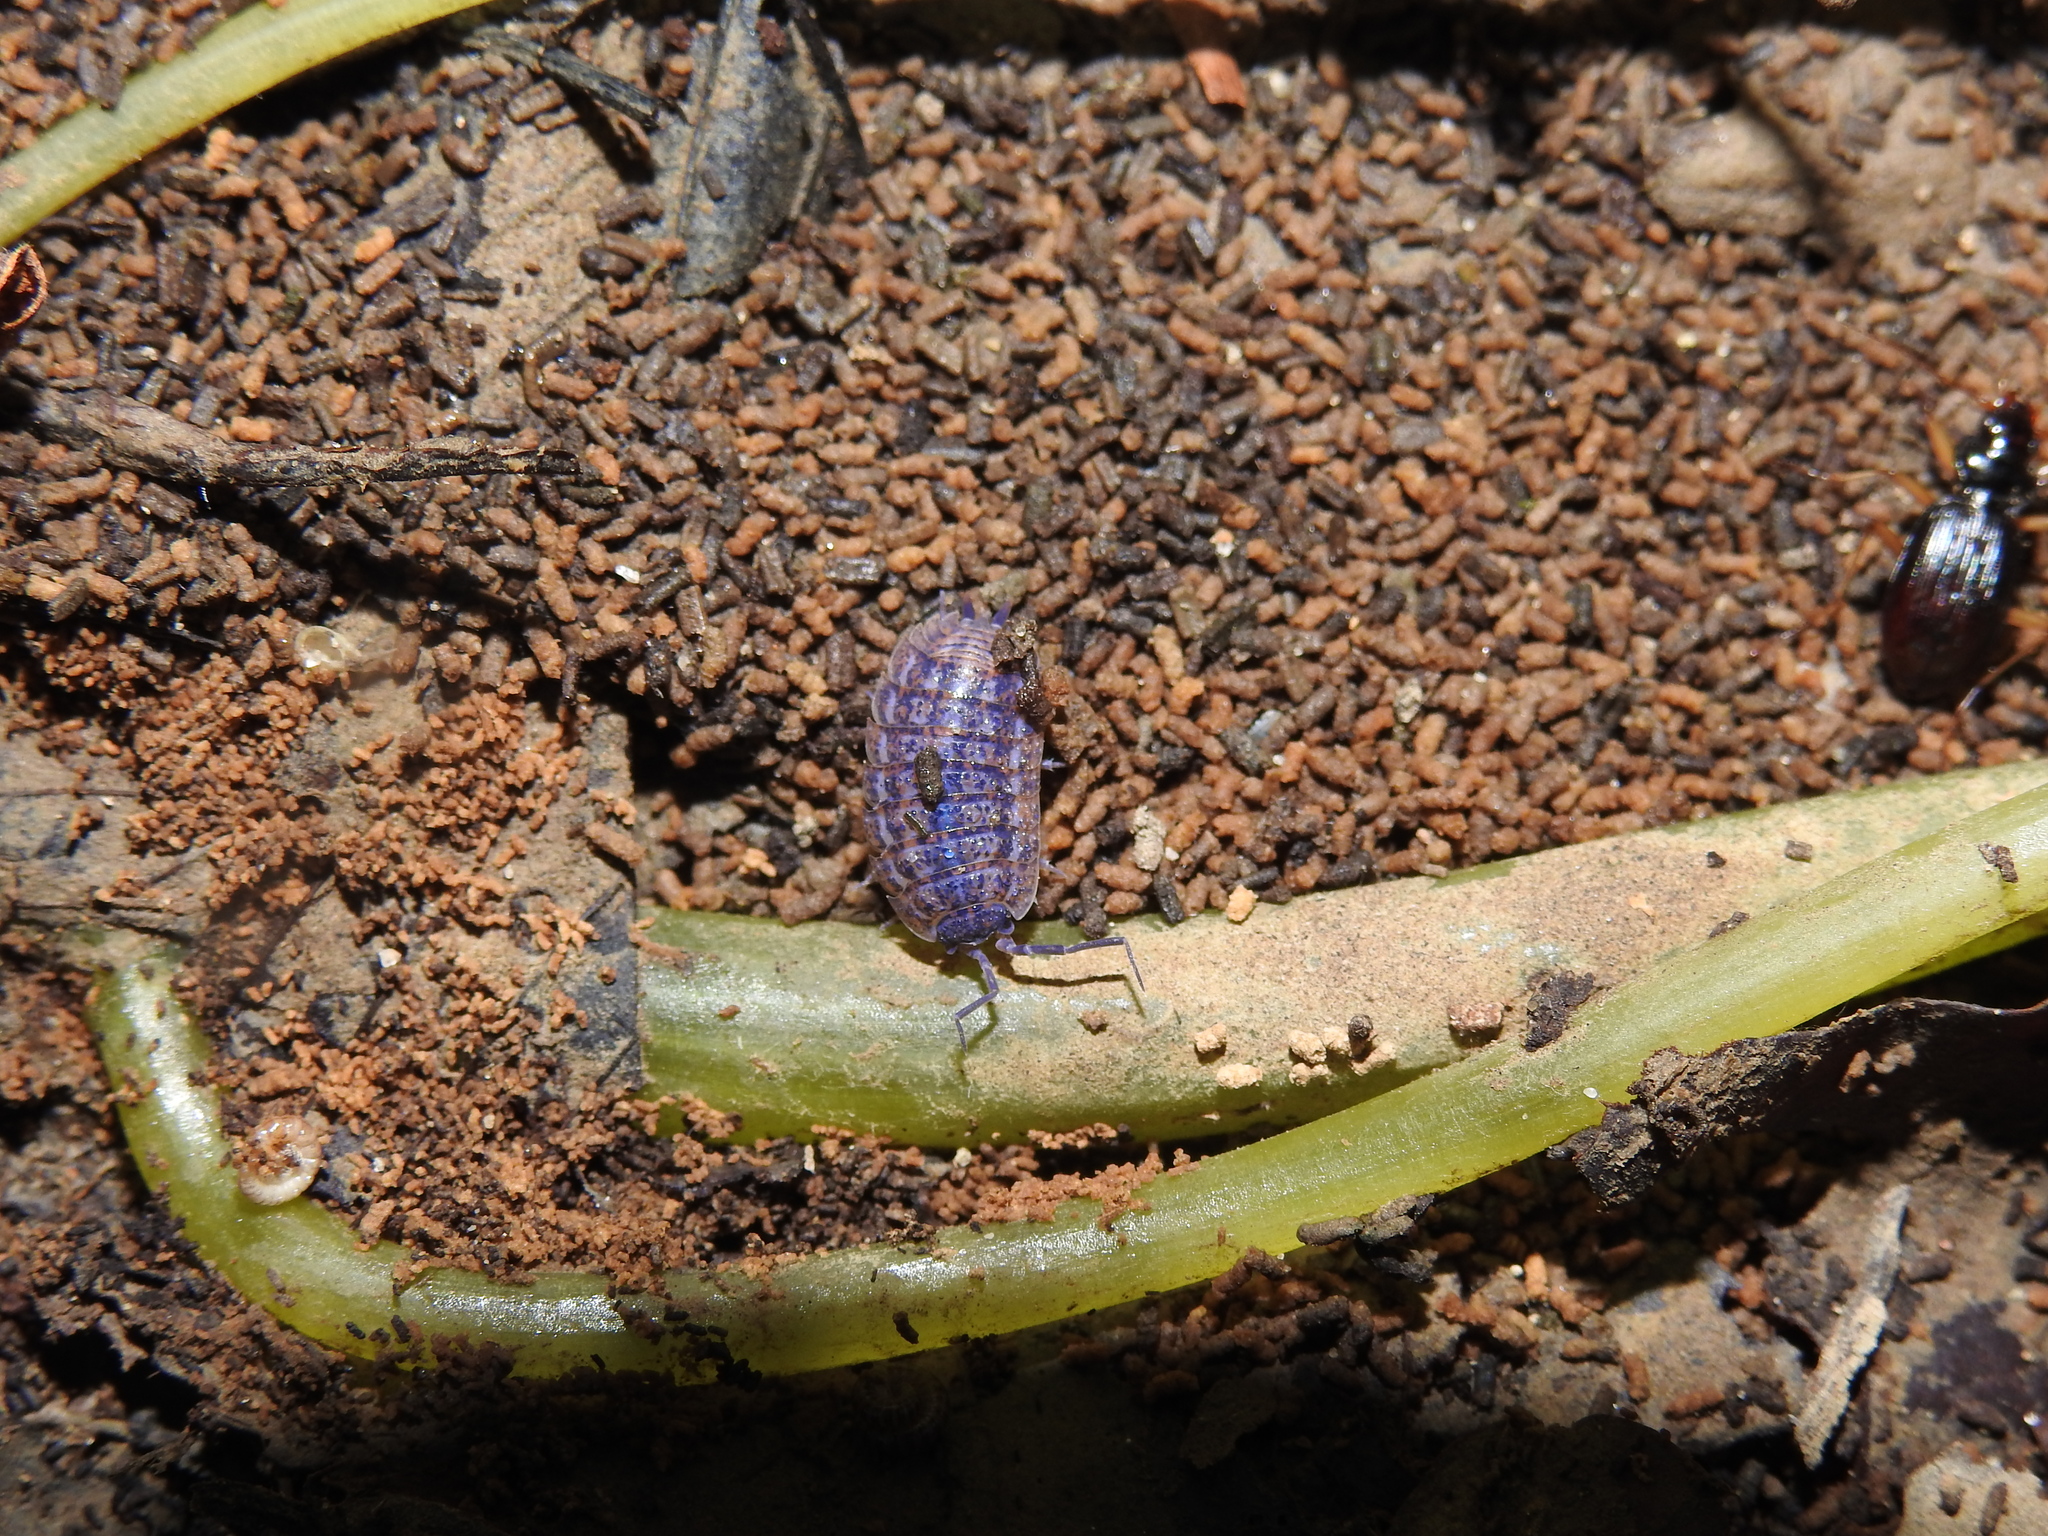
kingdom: Animalia
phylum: Arthropoda
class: Malacostraca
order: Isopoda
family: Trachelipodidae
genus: Trachelipus
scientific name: Trachelipus rathkii
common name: Isopod
